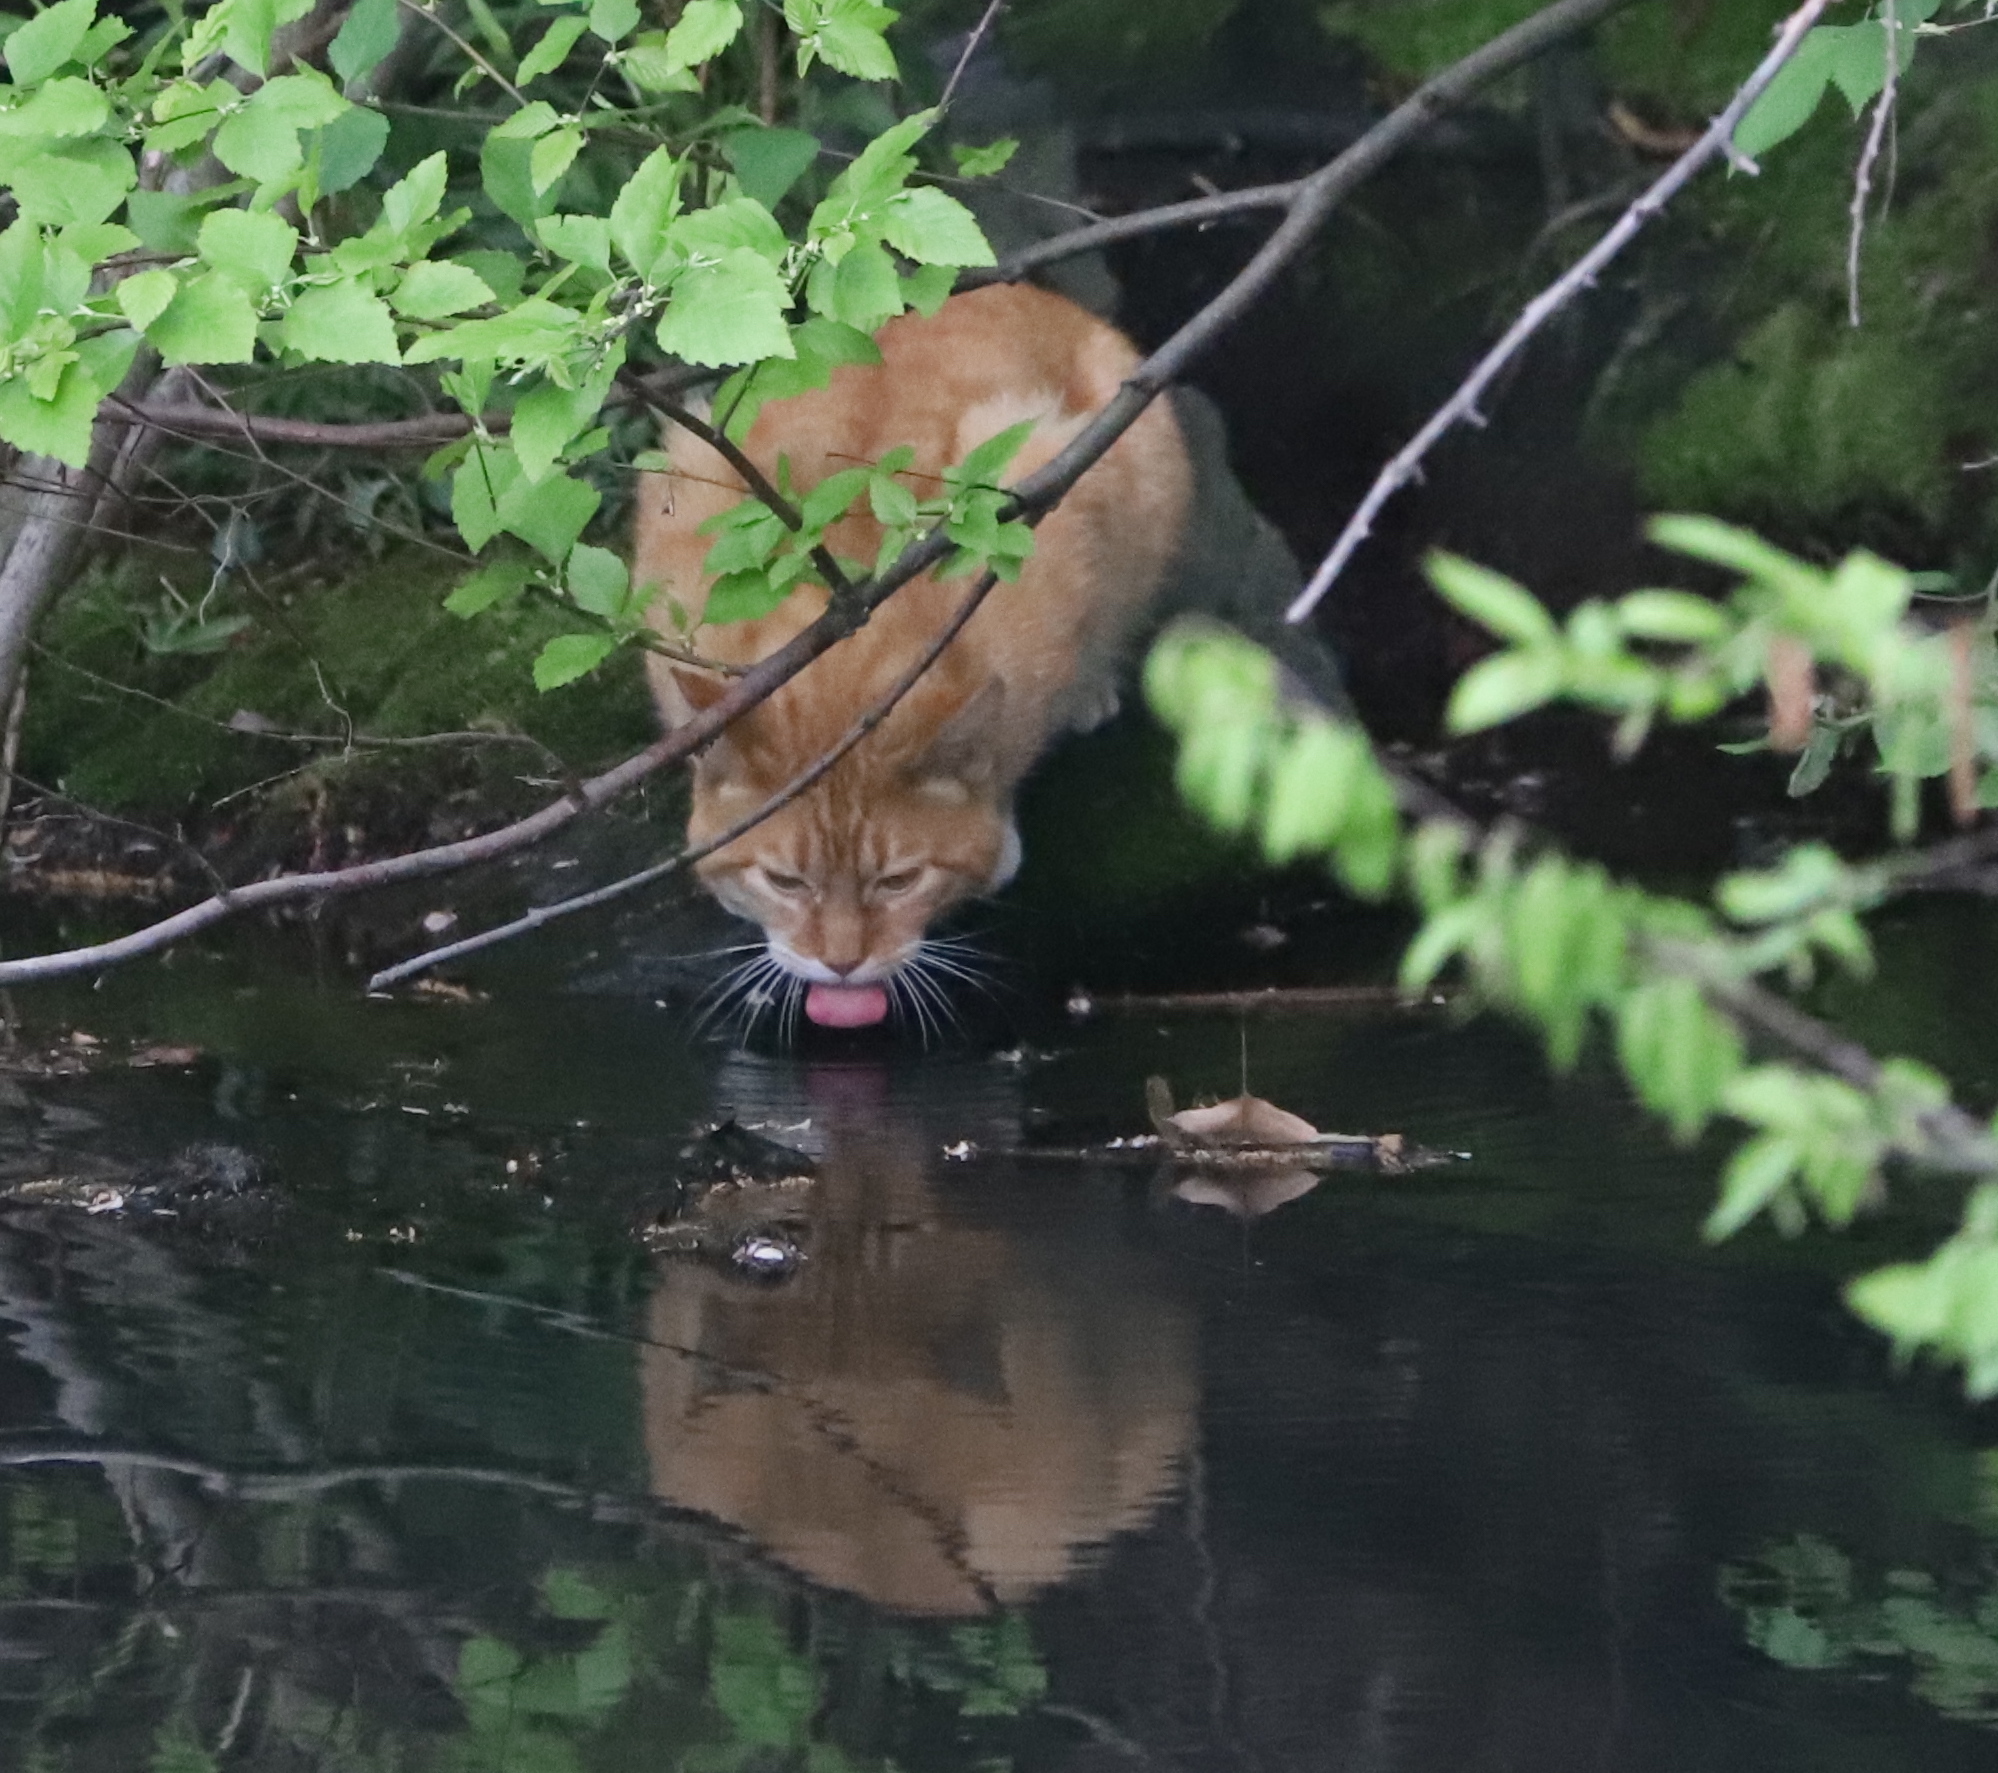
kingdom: Animalia
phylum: Chordata
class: Mammalia
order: Carnivora
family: Felidae
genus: Felis
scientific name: Felis catus
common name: Domestic cat
